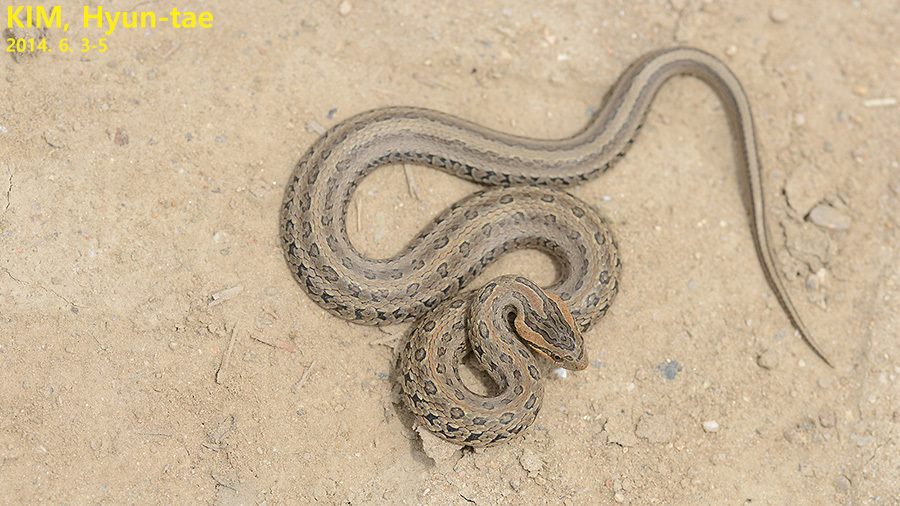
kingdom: Animalia
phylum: Chordata
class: Squamata
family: Colubridae
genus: Oocatochus
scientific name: Oocatochus rufodorsatus
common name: Frog-eating rat snake
